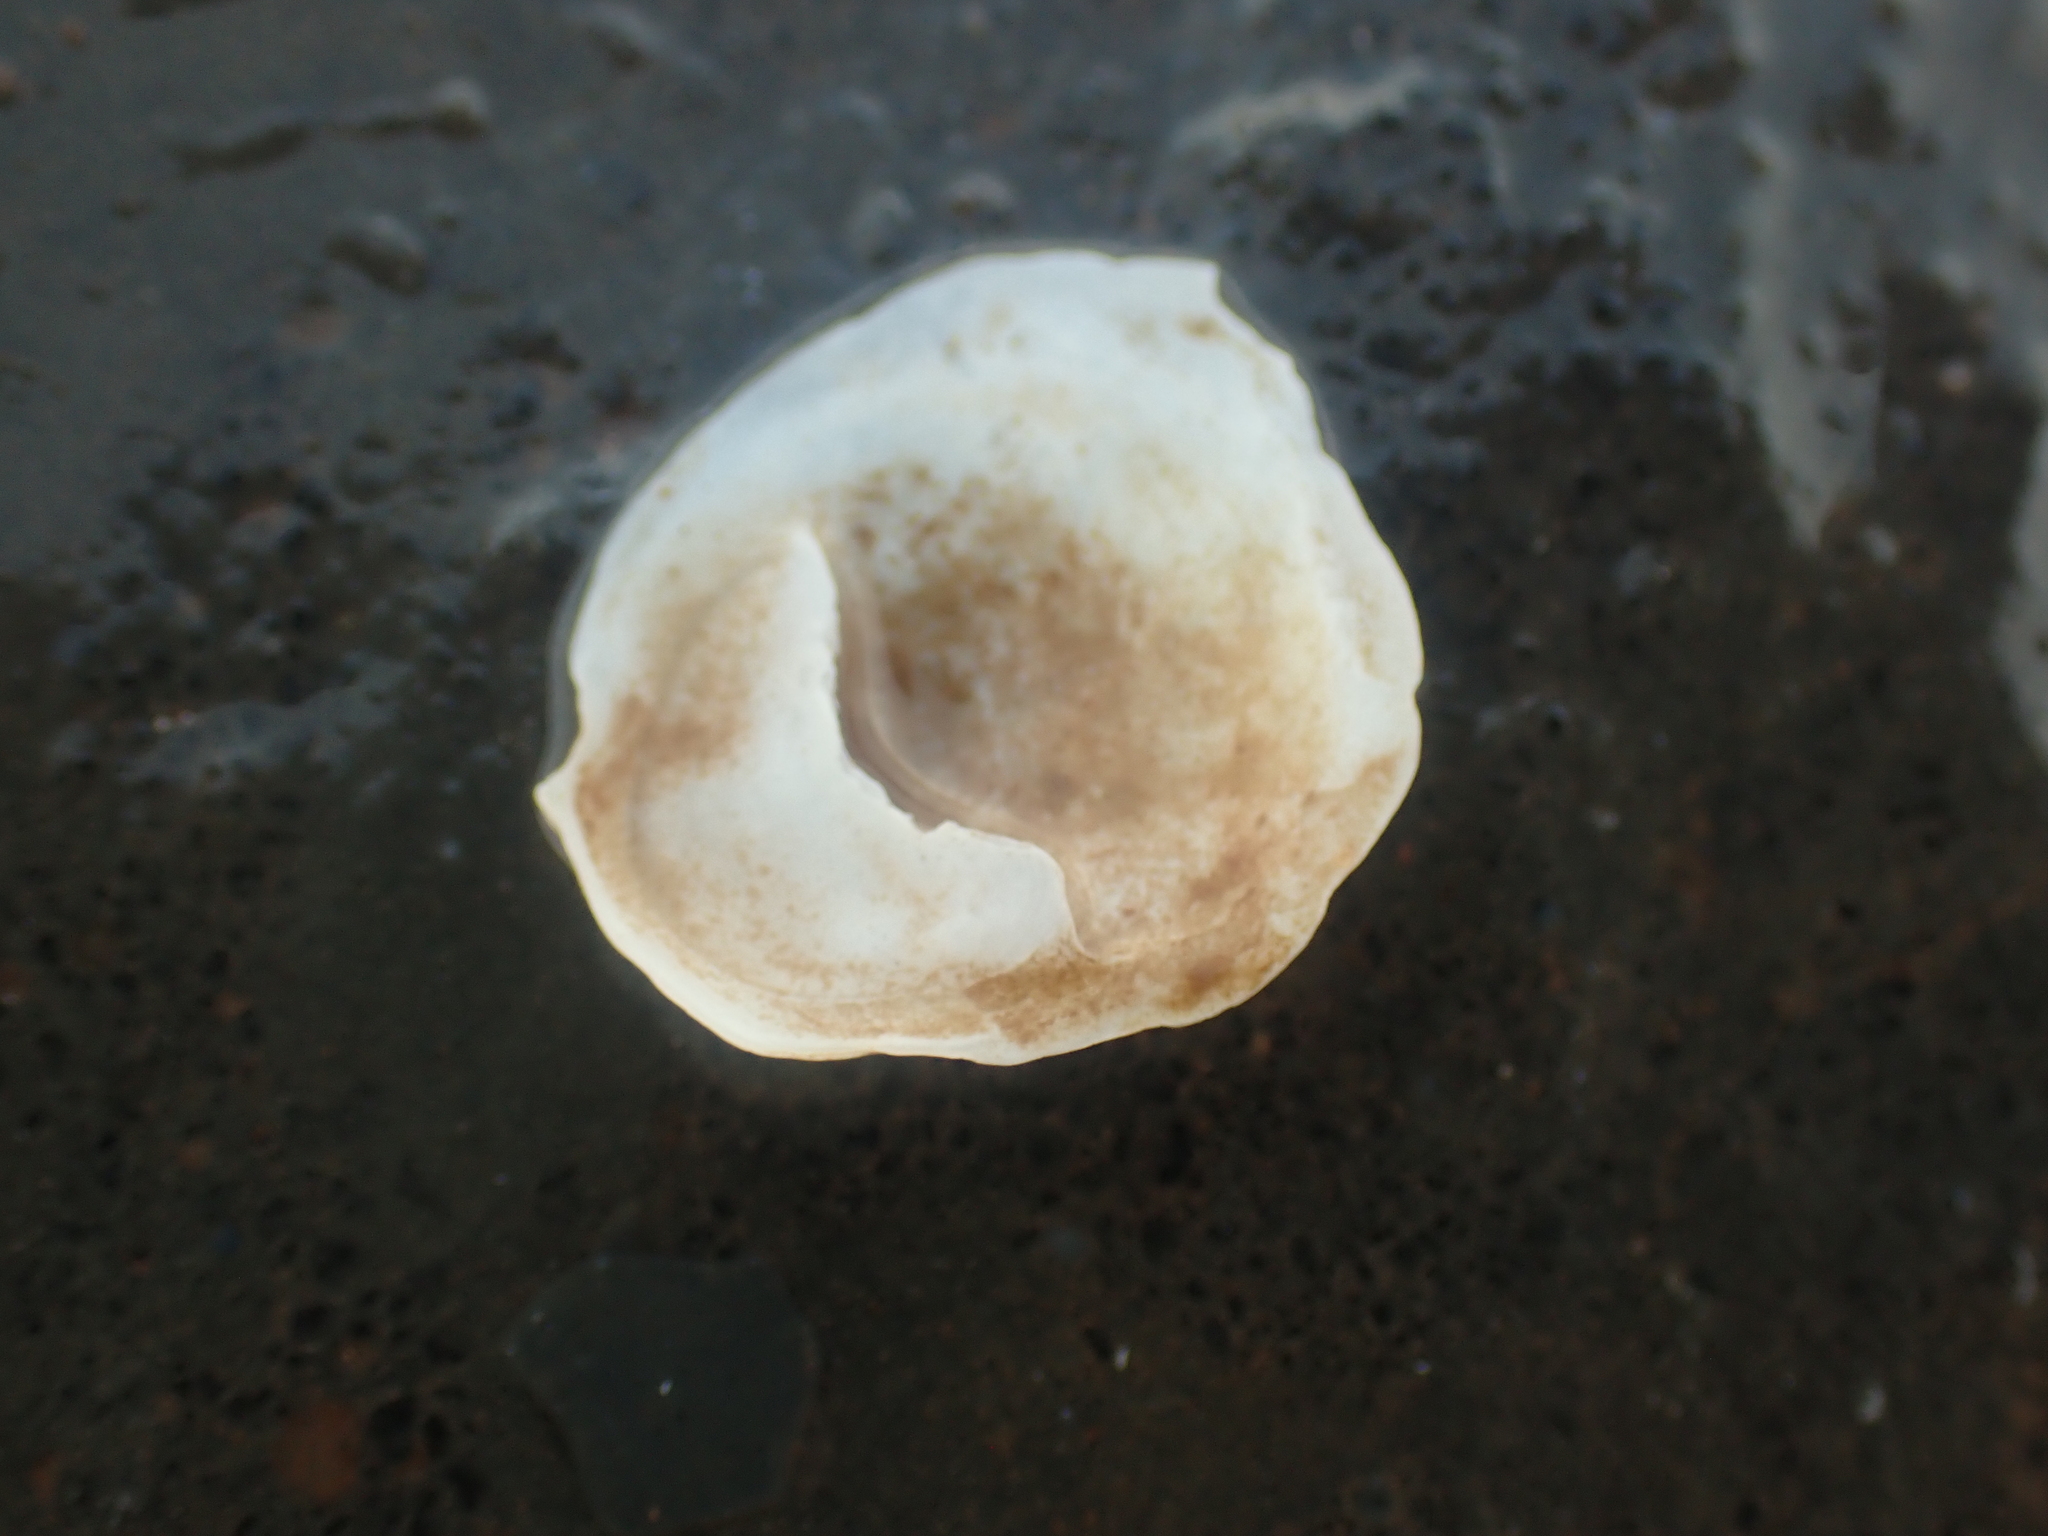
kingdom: Animalia
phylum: Mollusca
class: Gastropoda
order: Littorinimorpha
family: Calyptraeidae
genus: Crepidula
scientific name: Crepidula plana
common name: Eastern white slippersnail
